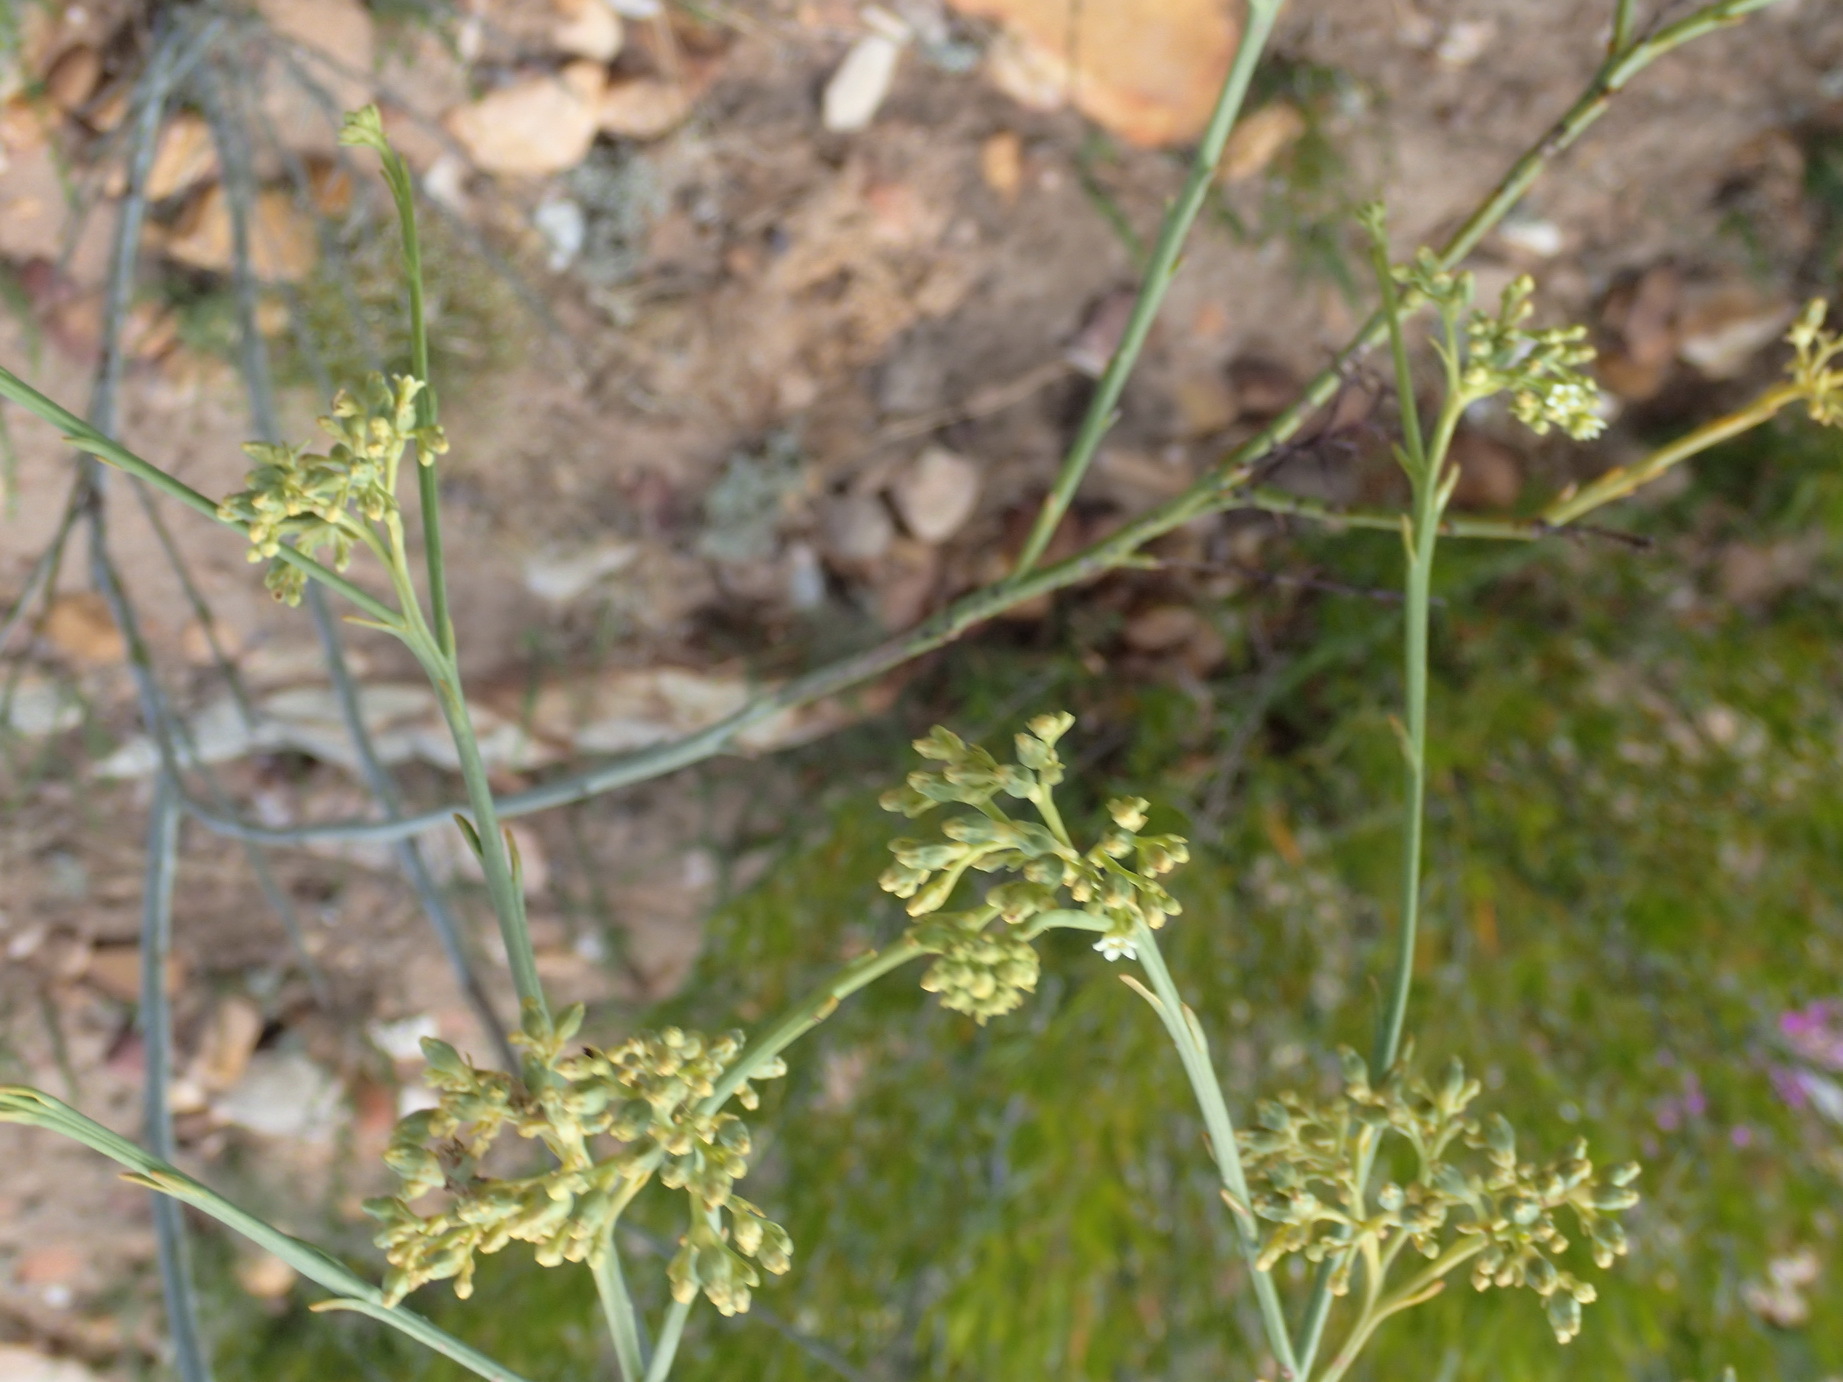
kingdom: Plantae
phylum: Tracheophyta
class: Magnoliopsida
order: Santalales
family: Thesiaceae
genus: Thesium
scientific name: Thesium strictum
